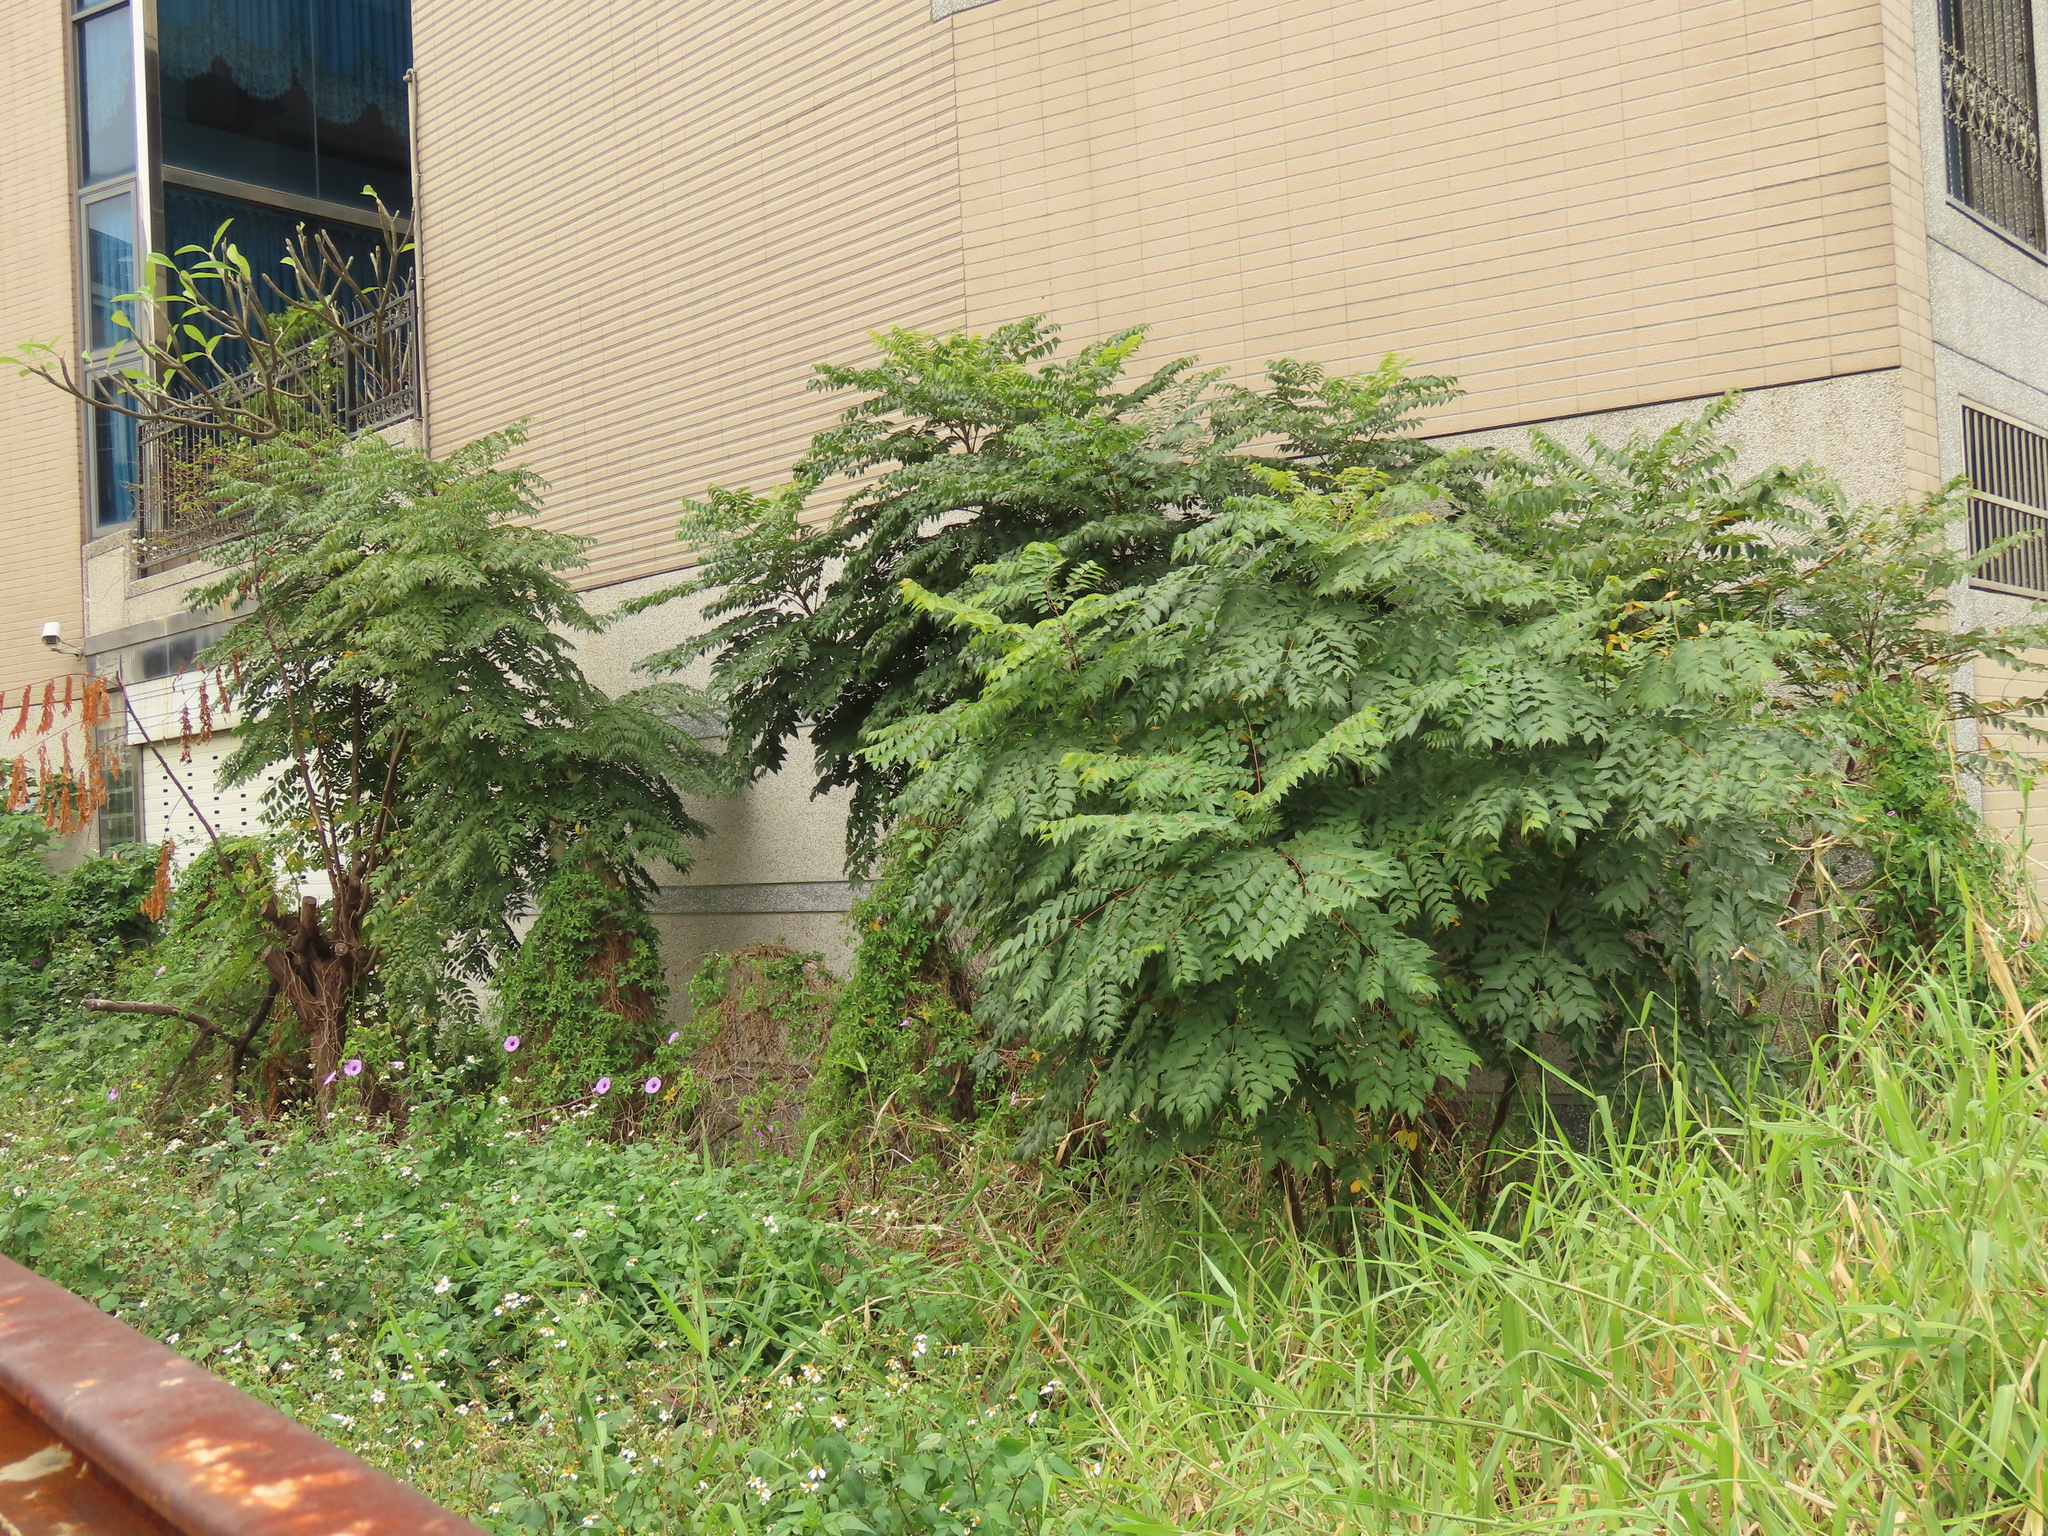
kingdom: Plantae
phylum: Tracheophyta
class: Magnoliopsida
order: Sapindales
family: Sapindaceae
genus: Koelreuteria
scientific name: Koelreuteria elegans
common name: Chinese flame tree
